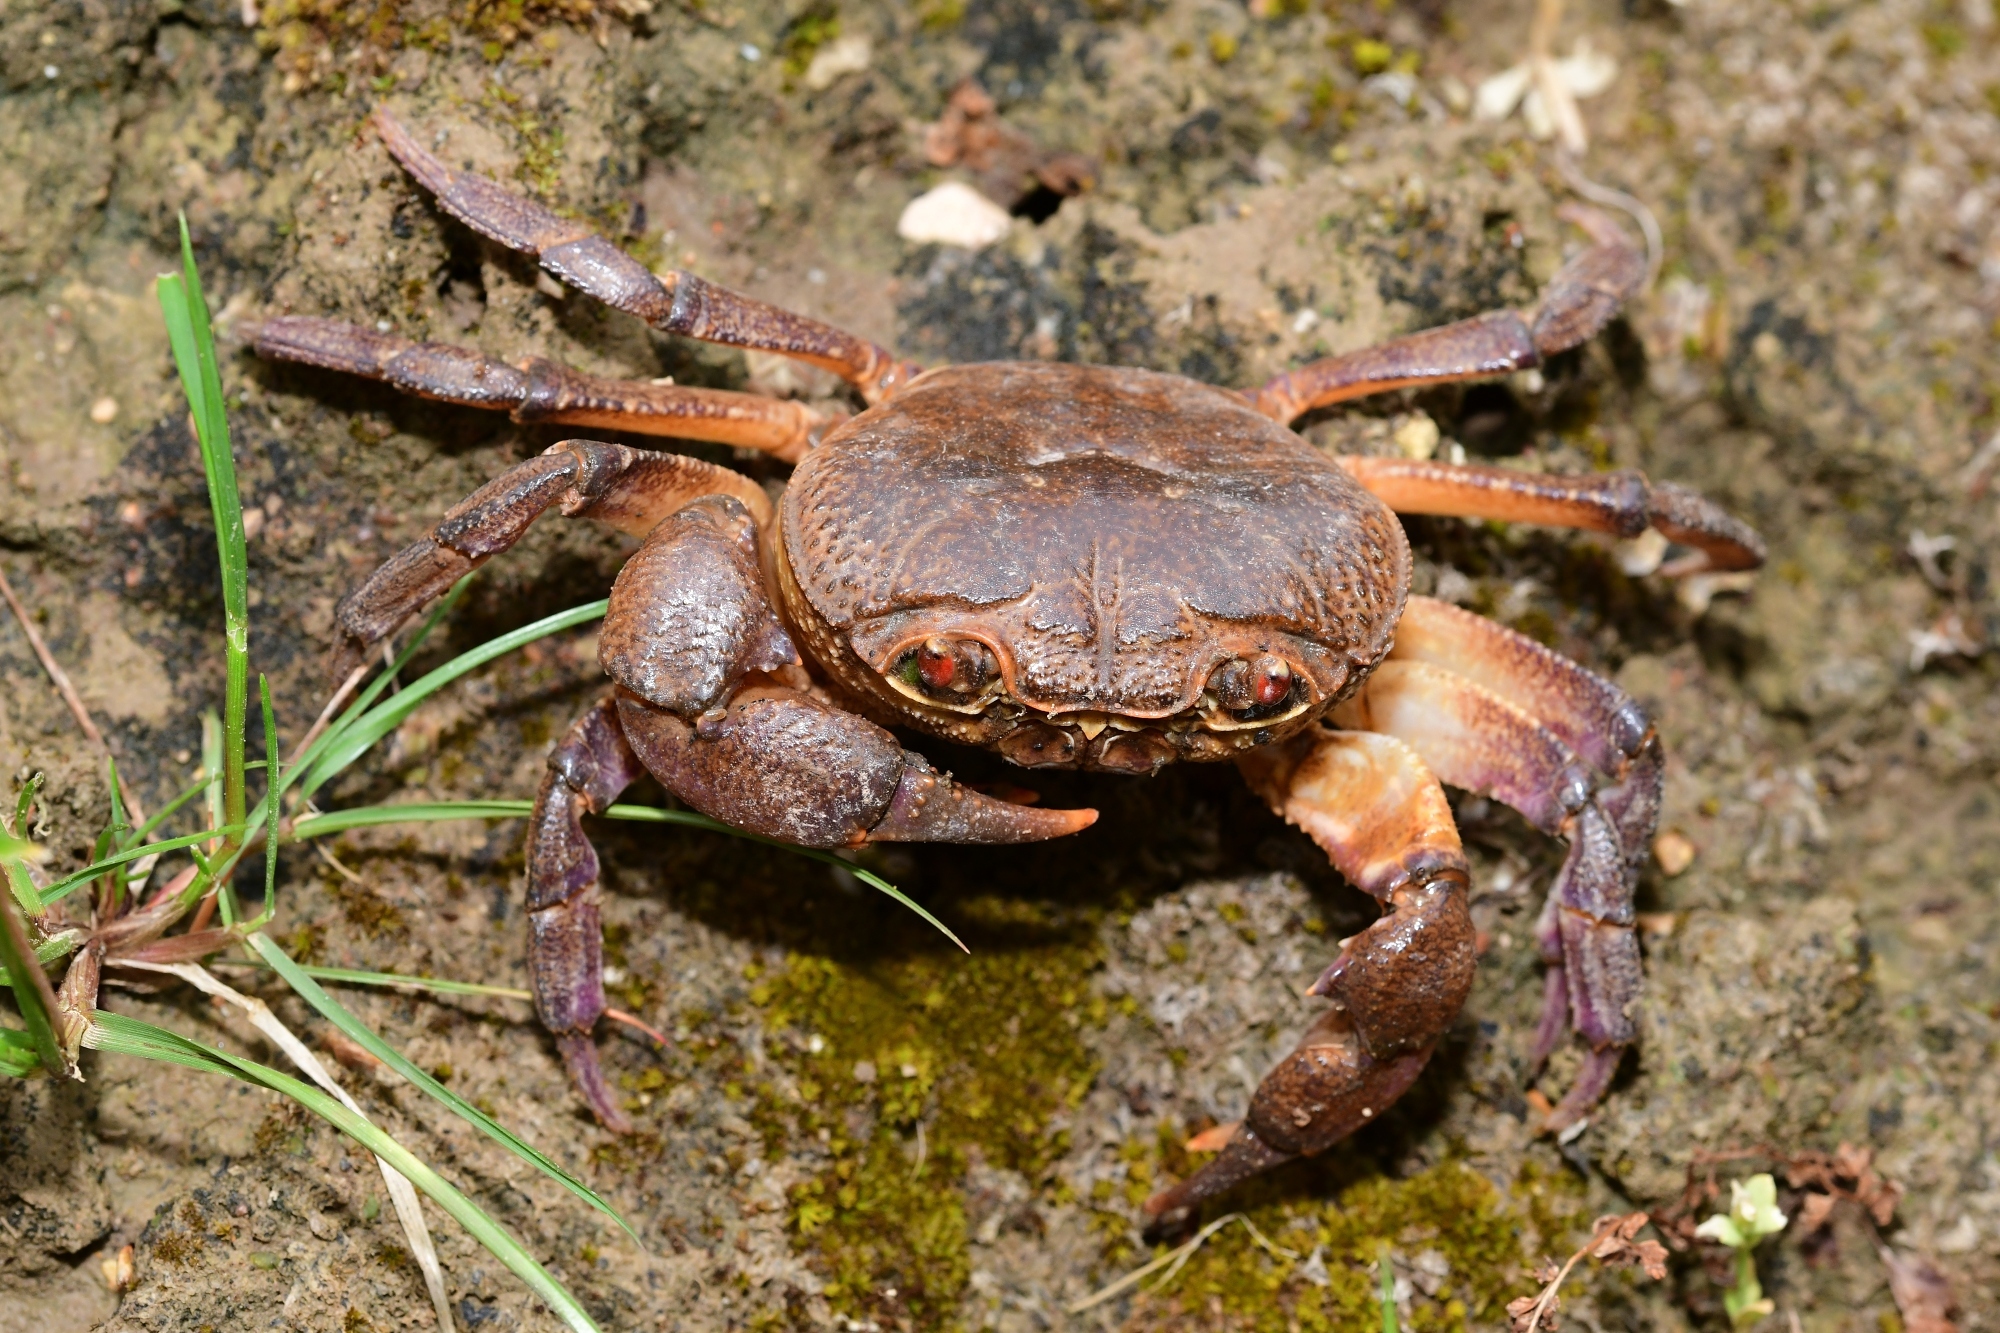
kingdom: Animalia
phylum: Arthropoda
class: Malacostraca
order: Decapoda
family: Potamidae
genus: Potamon
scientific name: Potamon pelops
